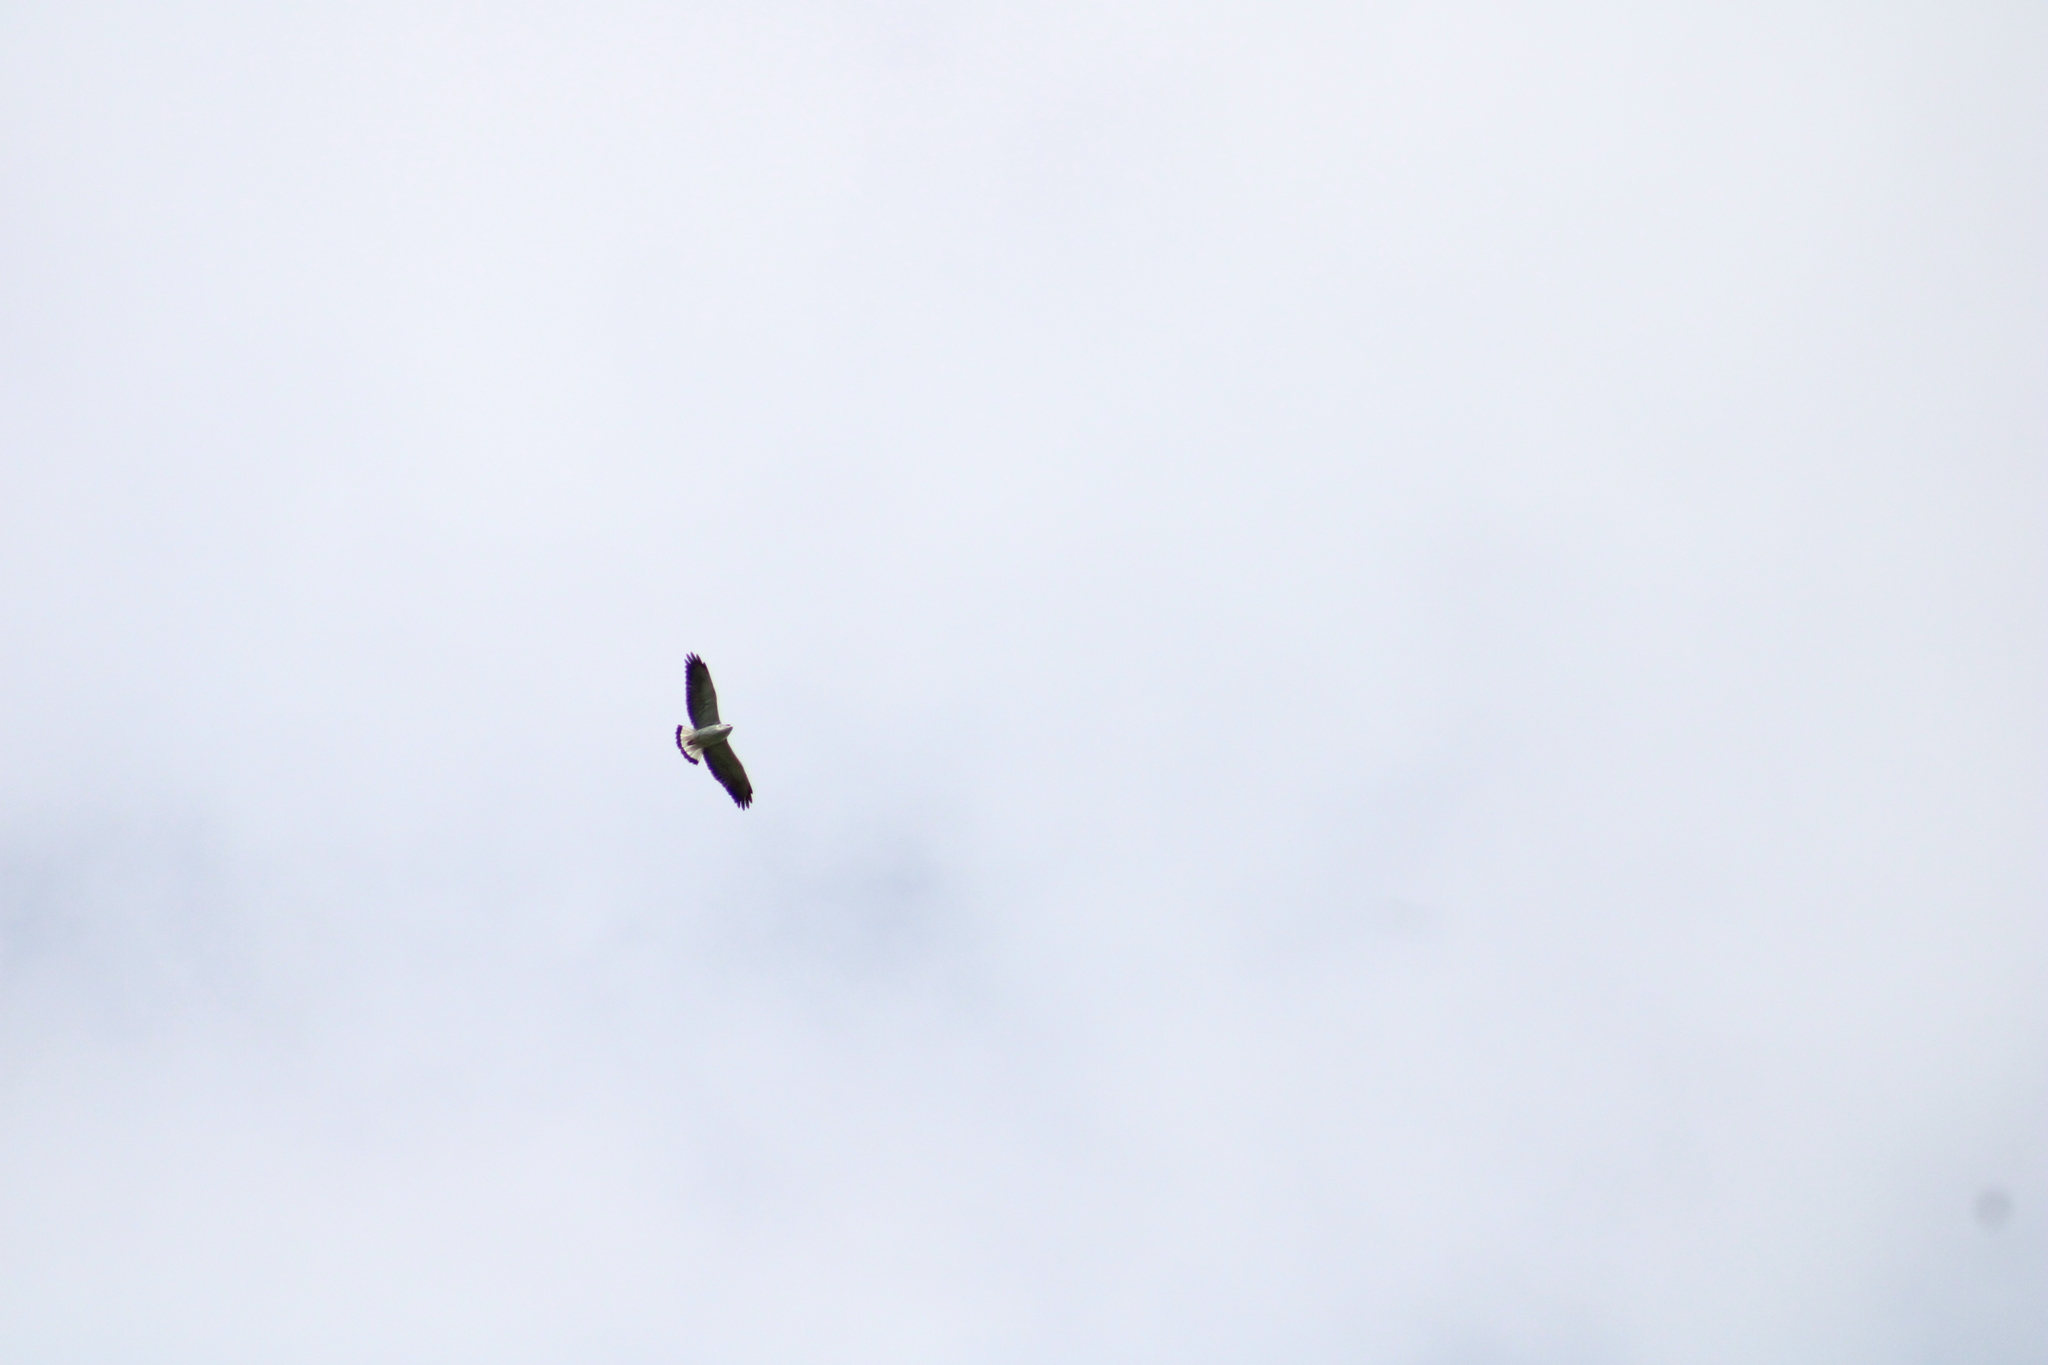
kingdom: Animalia
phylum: Chordata
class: Aves
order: Accipitriformes
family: Accipitridae
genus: Buteo
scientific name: Buteo polyosoma
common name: Variable hawk
